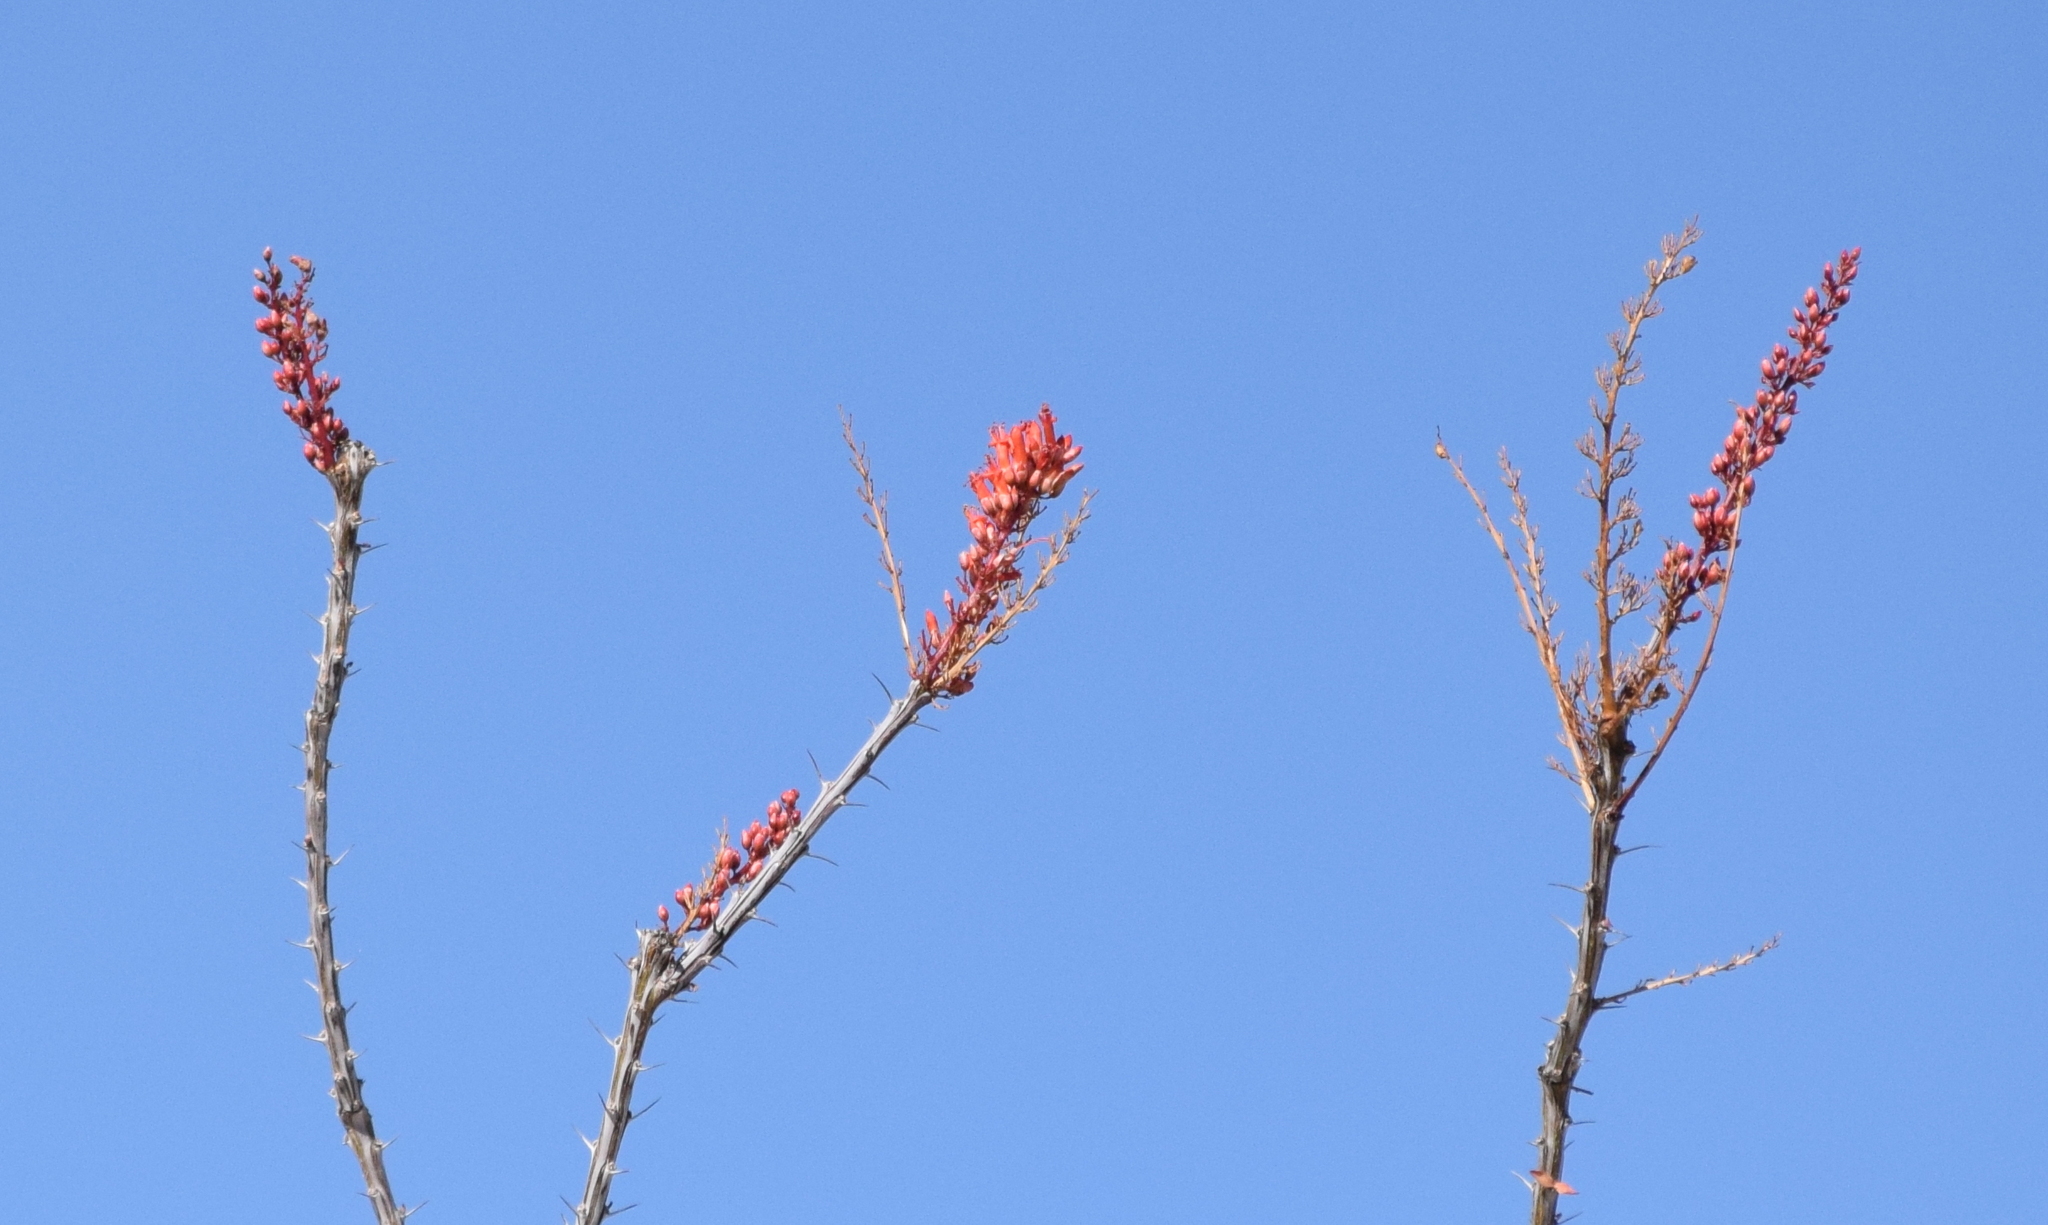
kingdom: Plantae
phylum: Tracheophyta
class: Magnoliopsida
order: Ericales
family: Fouquieriaceae
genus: Fouquieria
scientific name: Fouquieria splendens
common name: Vine-cactus
